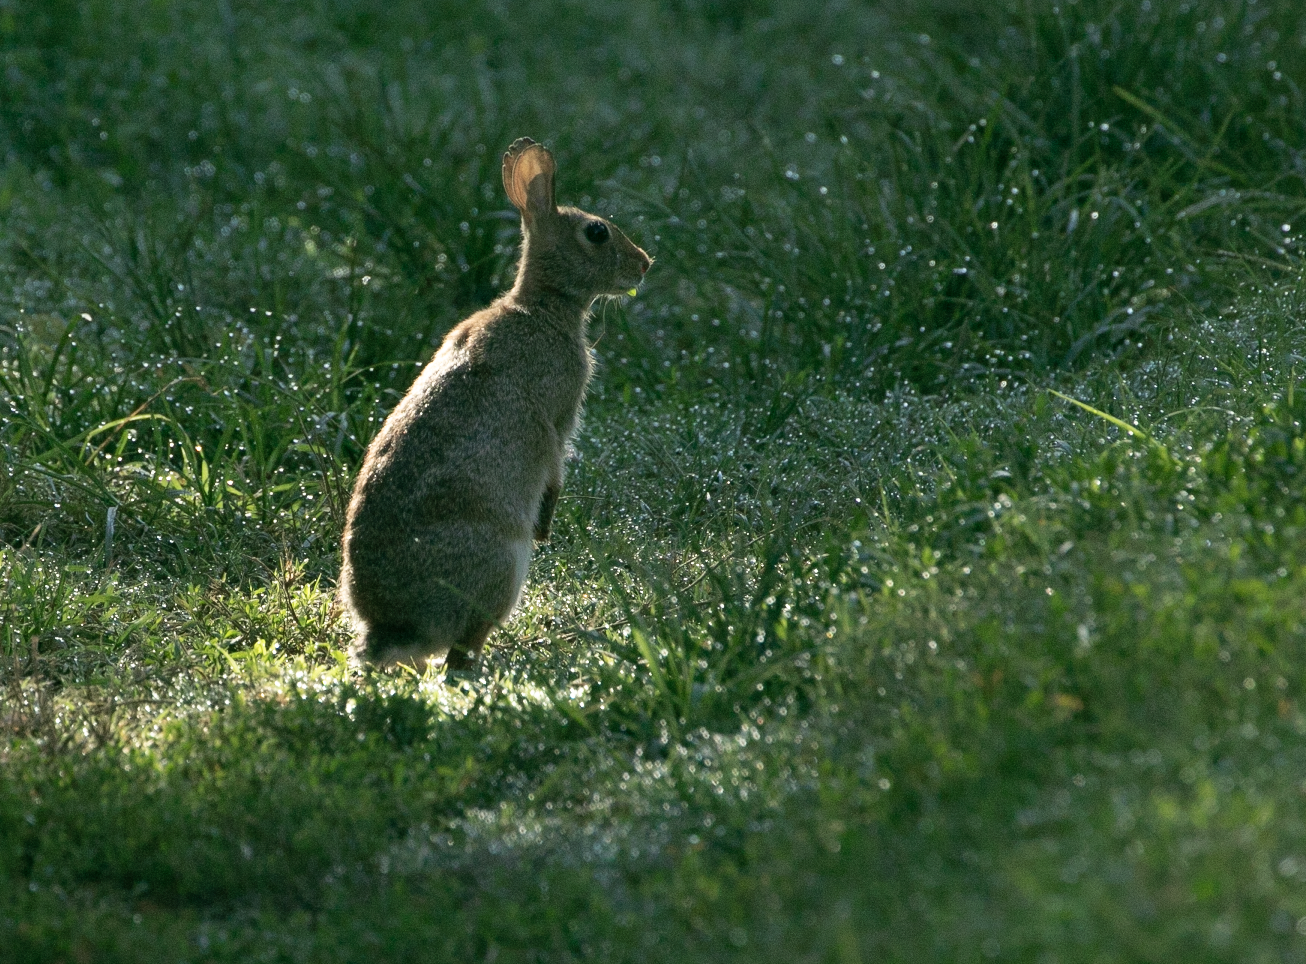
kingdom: Animalia
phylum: Chordata
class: Mammalia
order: Lagomorpha
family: Leporidae
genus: Sylvilagus
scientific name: Sylvilagus floridanus
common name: Eastern cottontail
